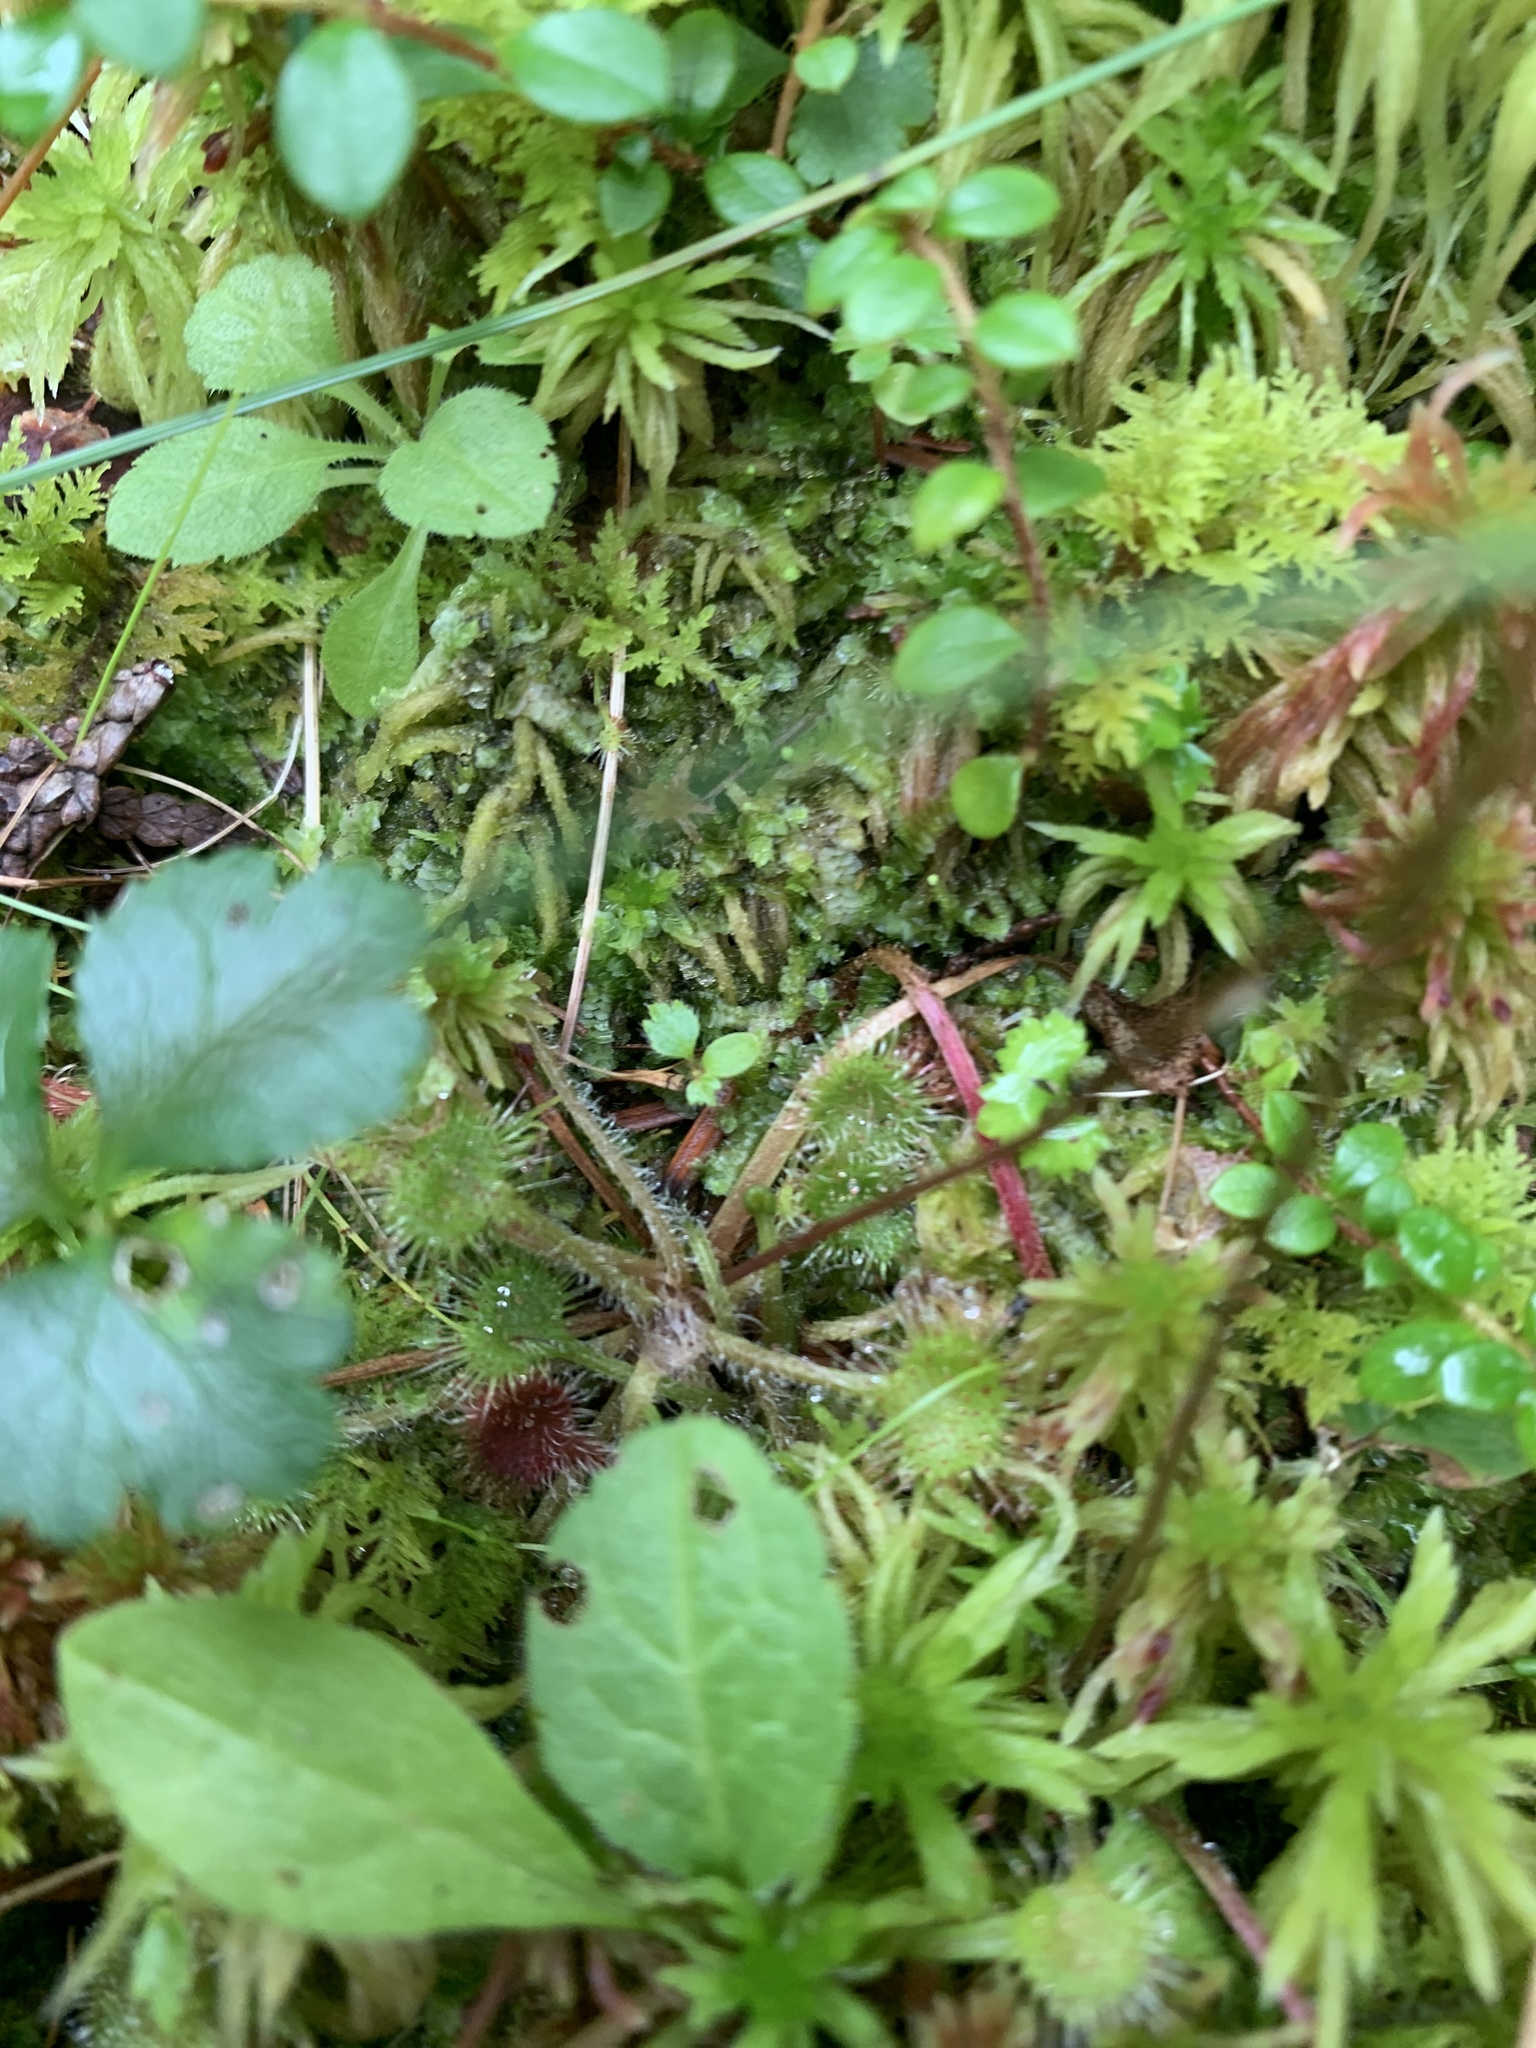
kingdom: Plantae
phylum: Tracheophyta
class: Magnoliopsida
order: Caryophyllales
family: Droseraceae
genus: Drosera
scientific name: Drosera rotundifolia
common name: Round-leaved sundew
